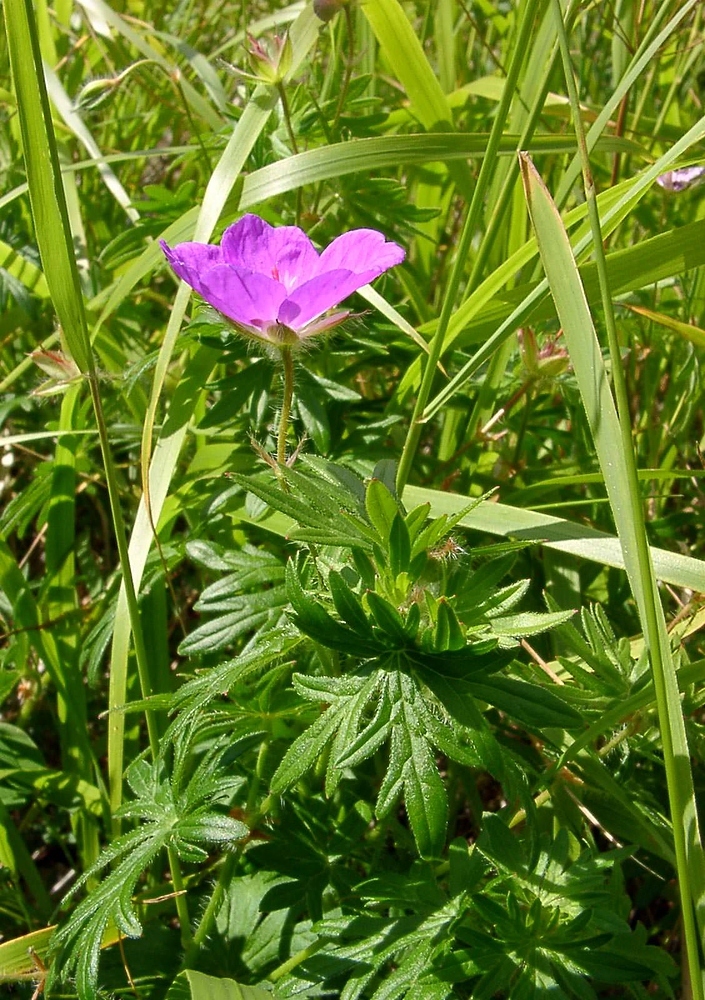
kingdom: Plantae
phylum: Tracheophyta
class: Magnoliopsida
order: Geraniales
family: Geraniaceae
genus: Geranium
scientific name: Geranium sanguineum
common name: Bloody crane's-bill
